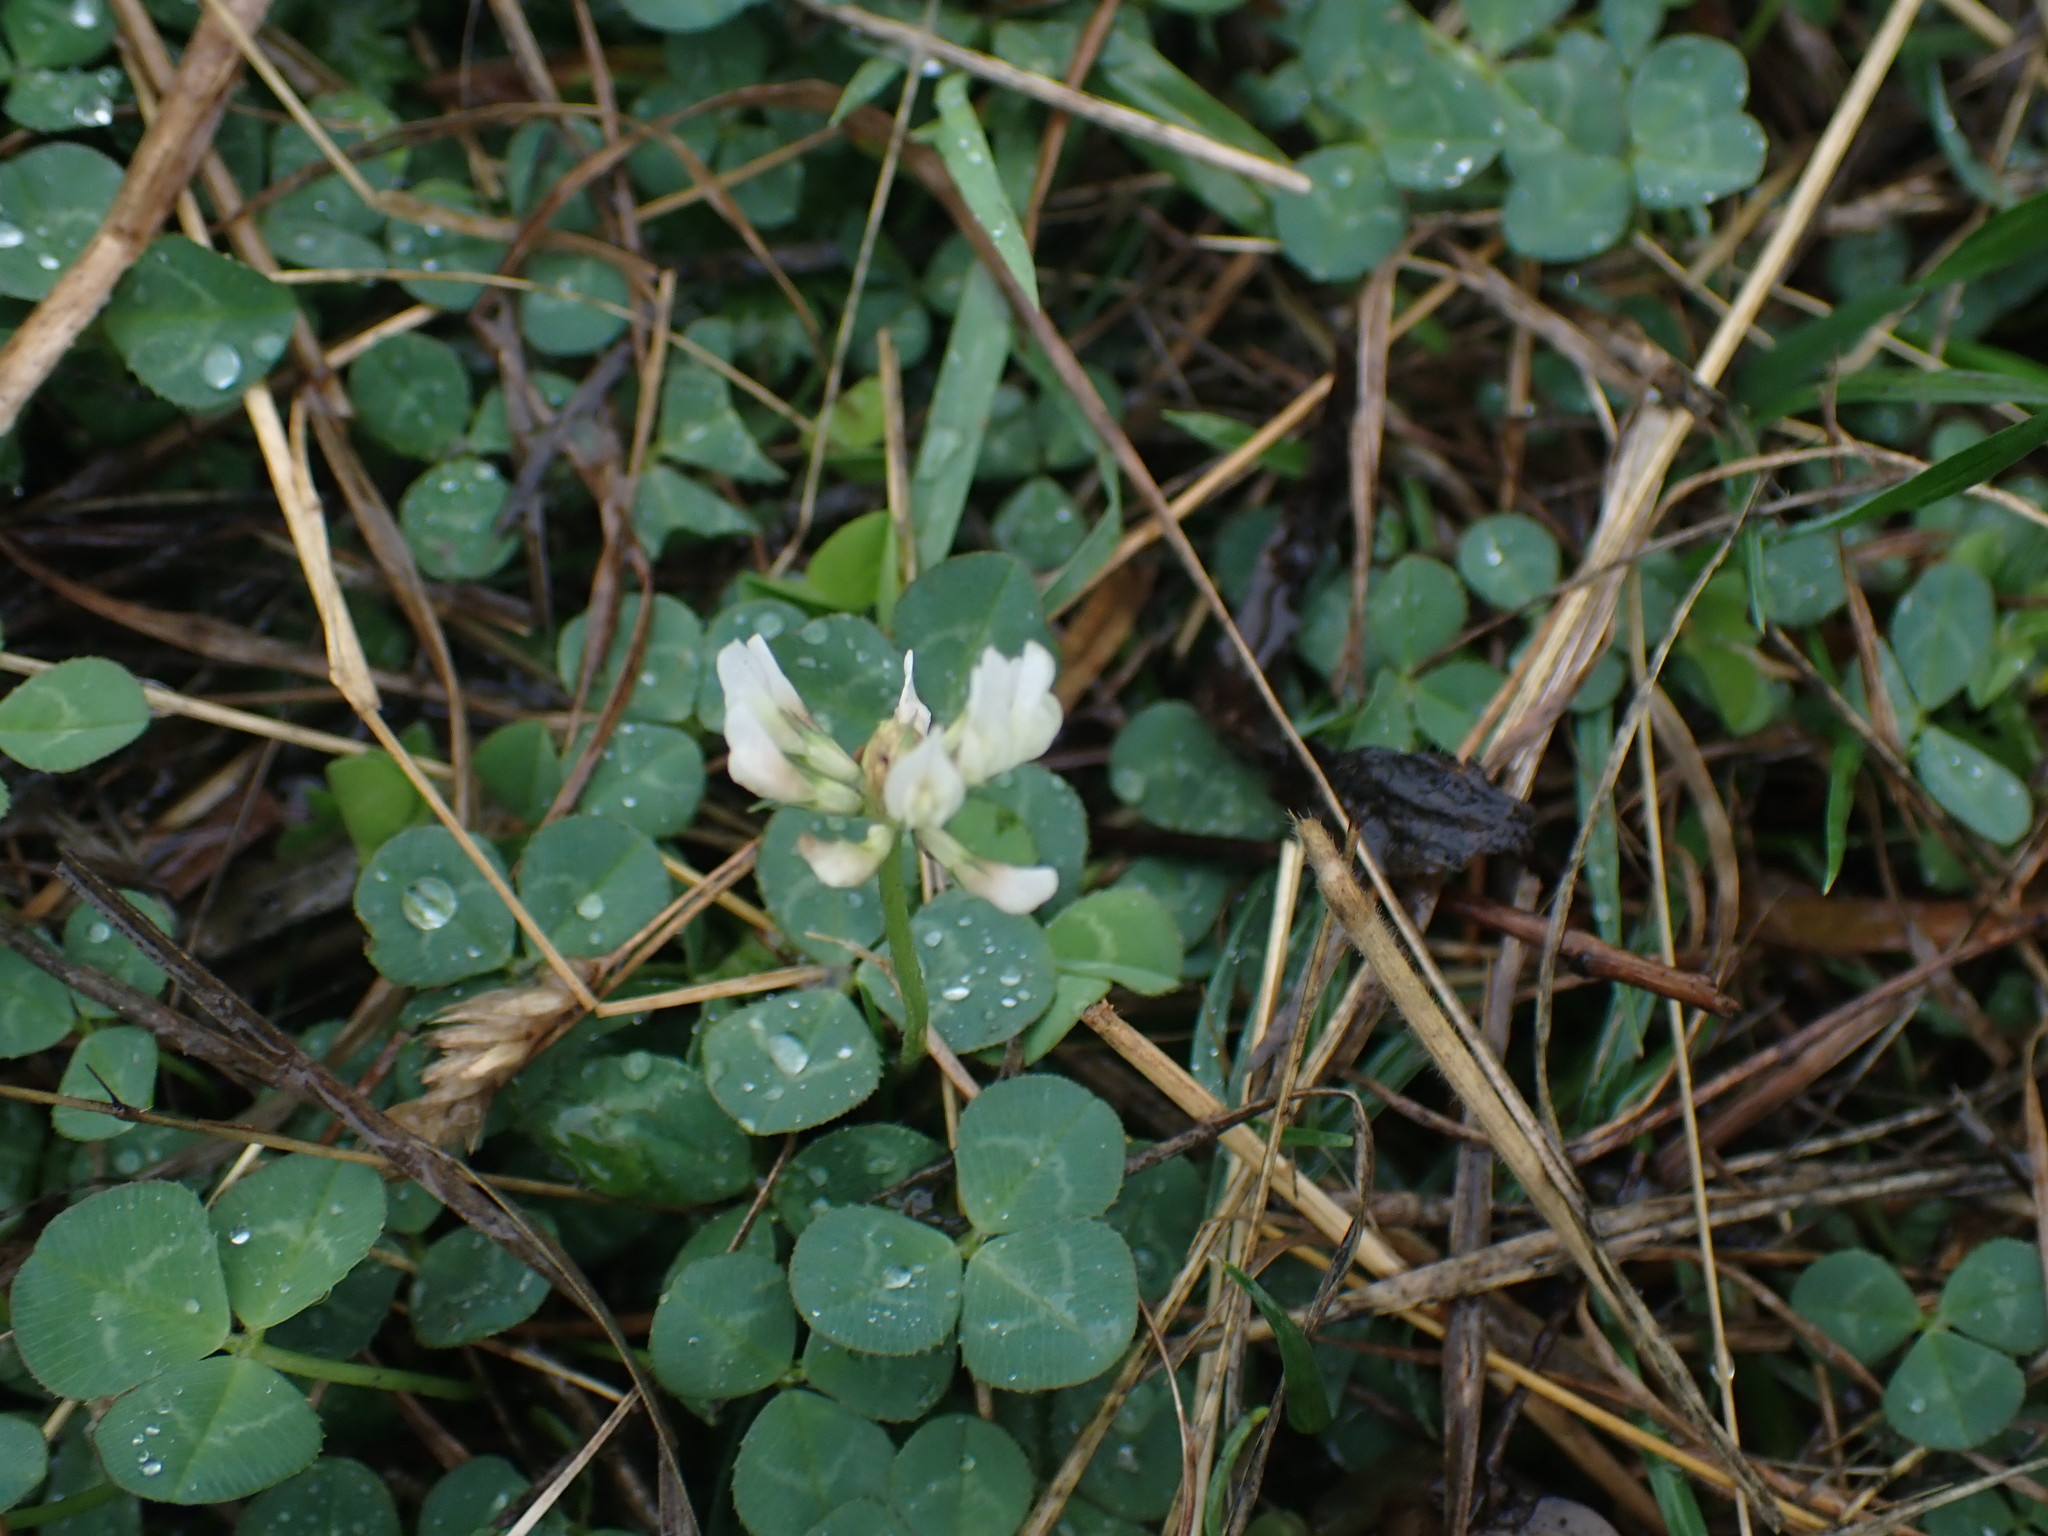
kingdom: Plantae
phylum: Tracheophyta
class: Magnoliopsida
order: Fabales
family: Fabaceae
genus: Trifolium
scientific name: Trifolium repens
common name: White clover
